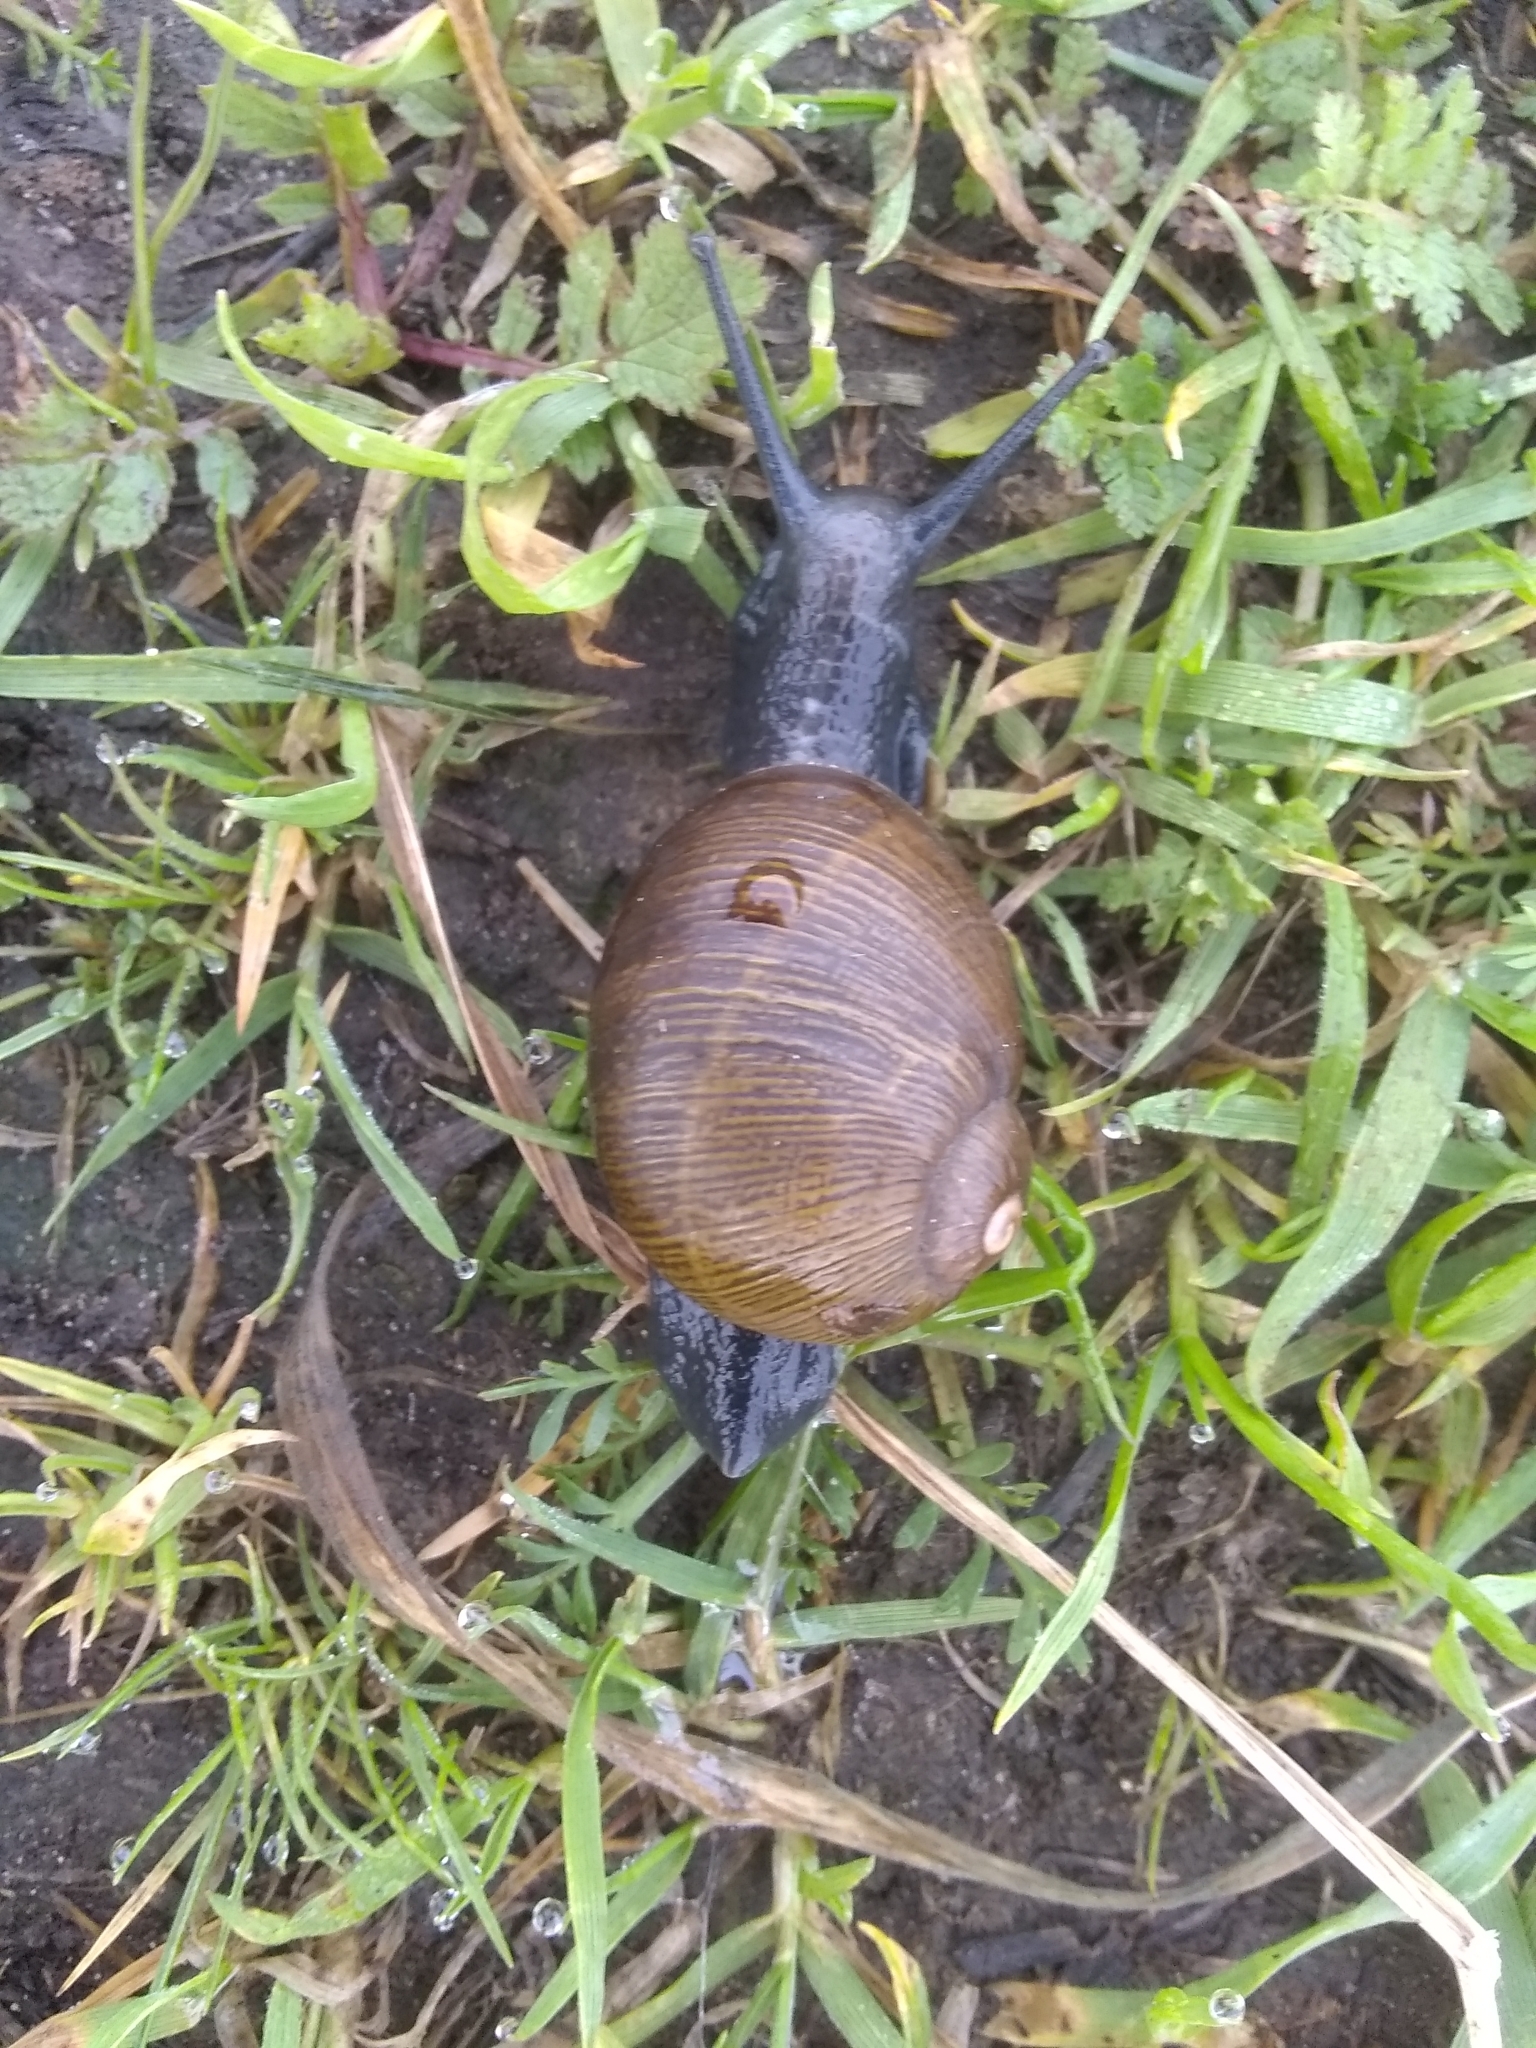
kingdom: Animalia
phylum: Mollusca
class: Gastropoda
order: Stylommatophora
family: Helicidae
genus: Cantareus
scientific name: Cantareus apertus
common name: Green gardensnail
